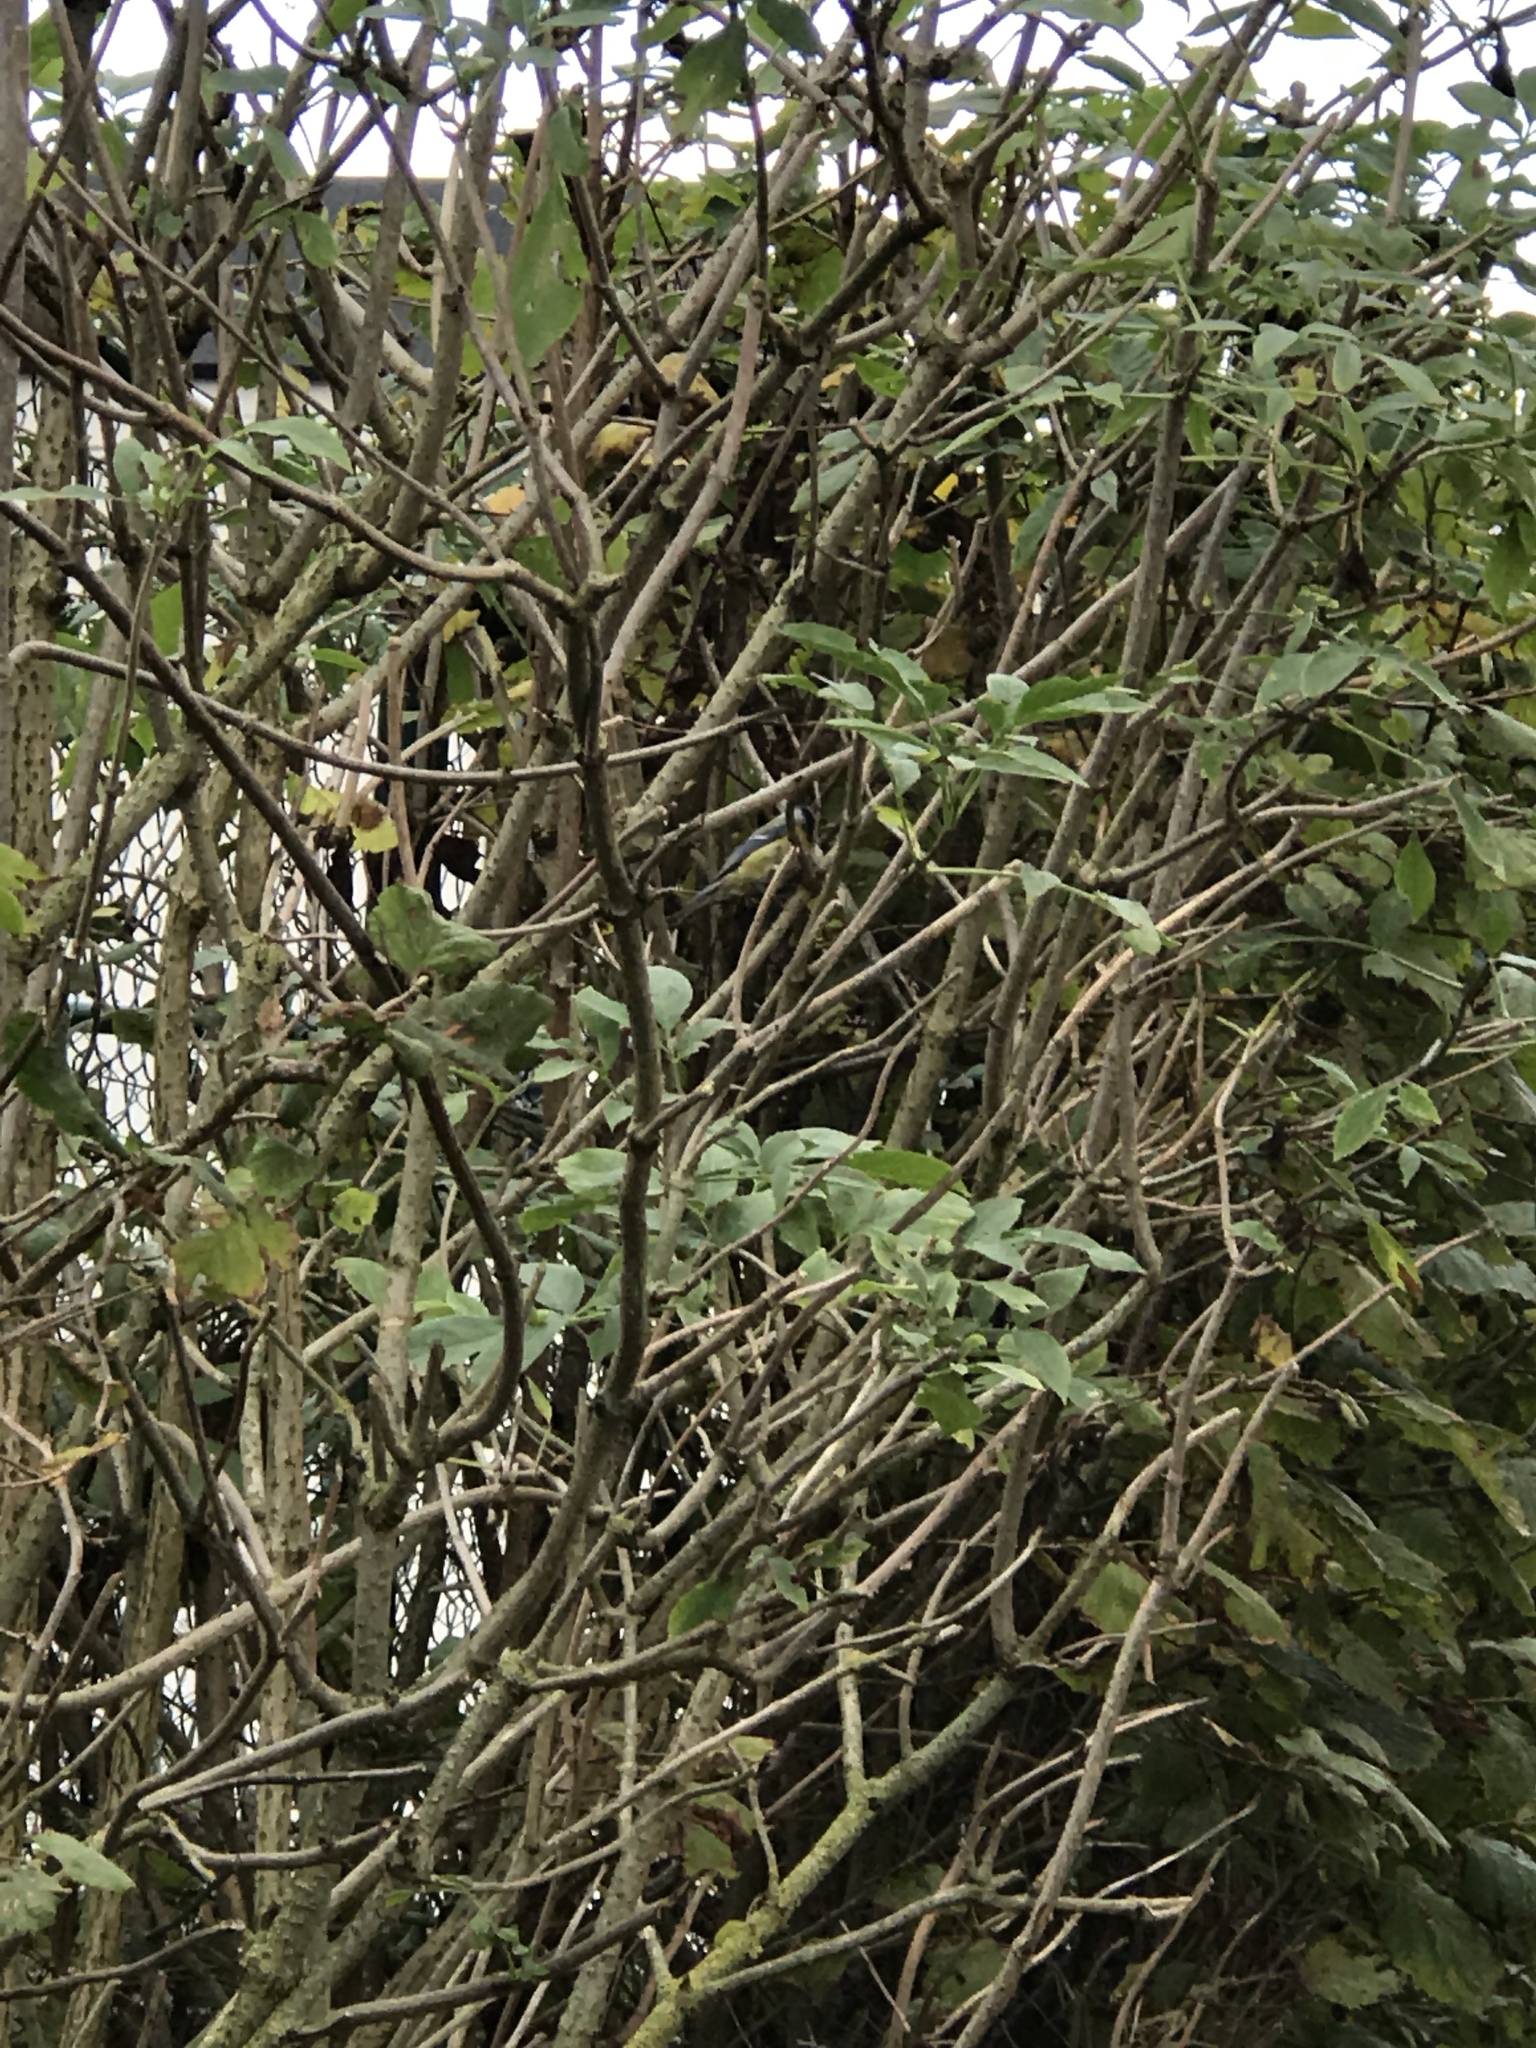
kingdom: Animalia
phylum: Chordata
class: Aves
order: Passeriformes
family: Paridae
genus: Cyanistes
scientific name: Cyanistes caeruleus
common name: Eurasian blue tit
